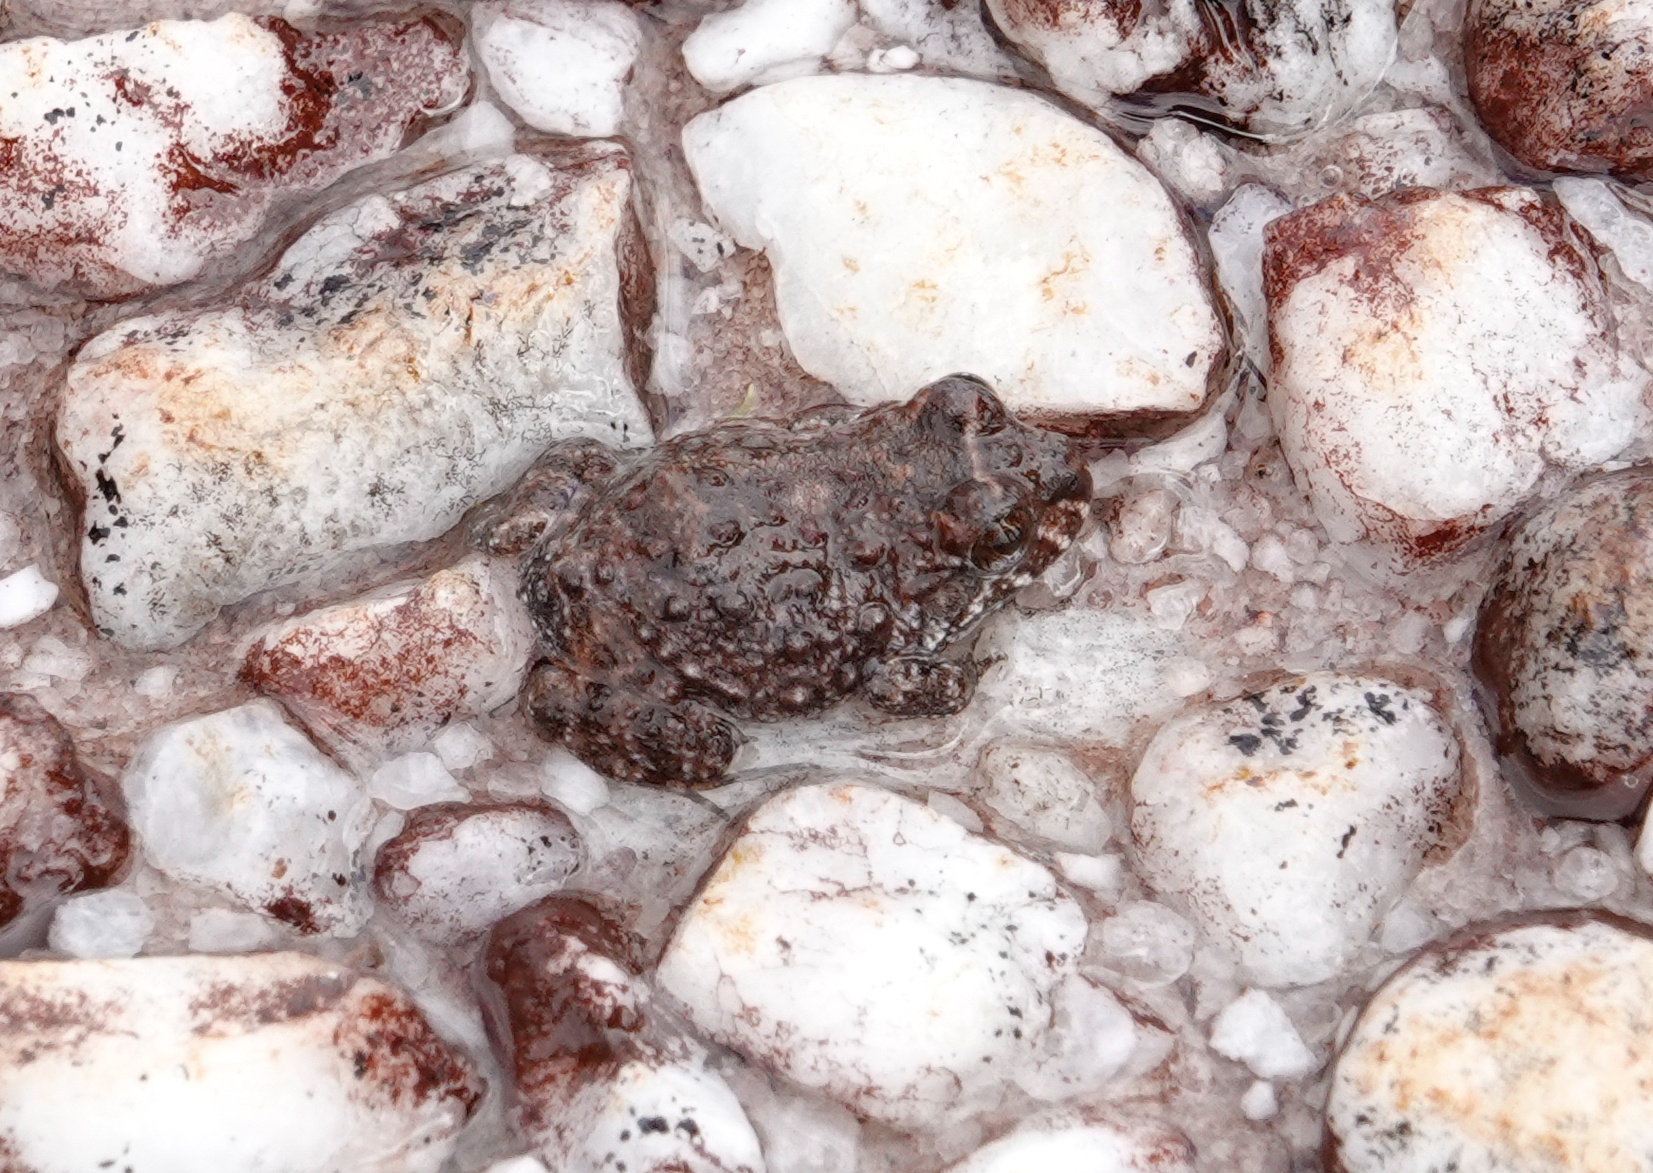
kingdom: Animalia
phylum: Chordata
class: Amphibia
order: Anura
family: Leptodactylidae
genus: Leptodactylus
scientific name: Leptodactylus rugosus
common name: Guyana white-lipped frog
